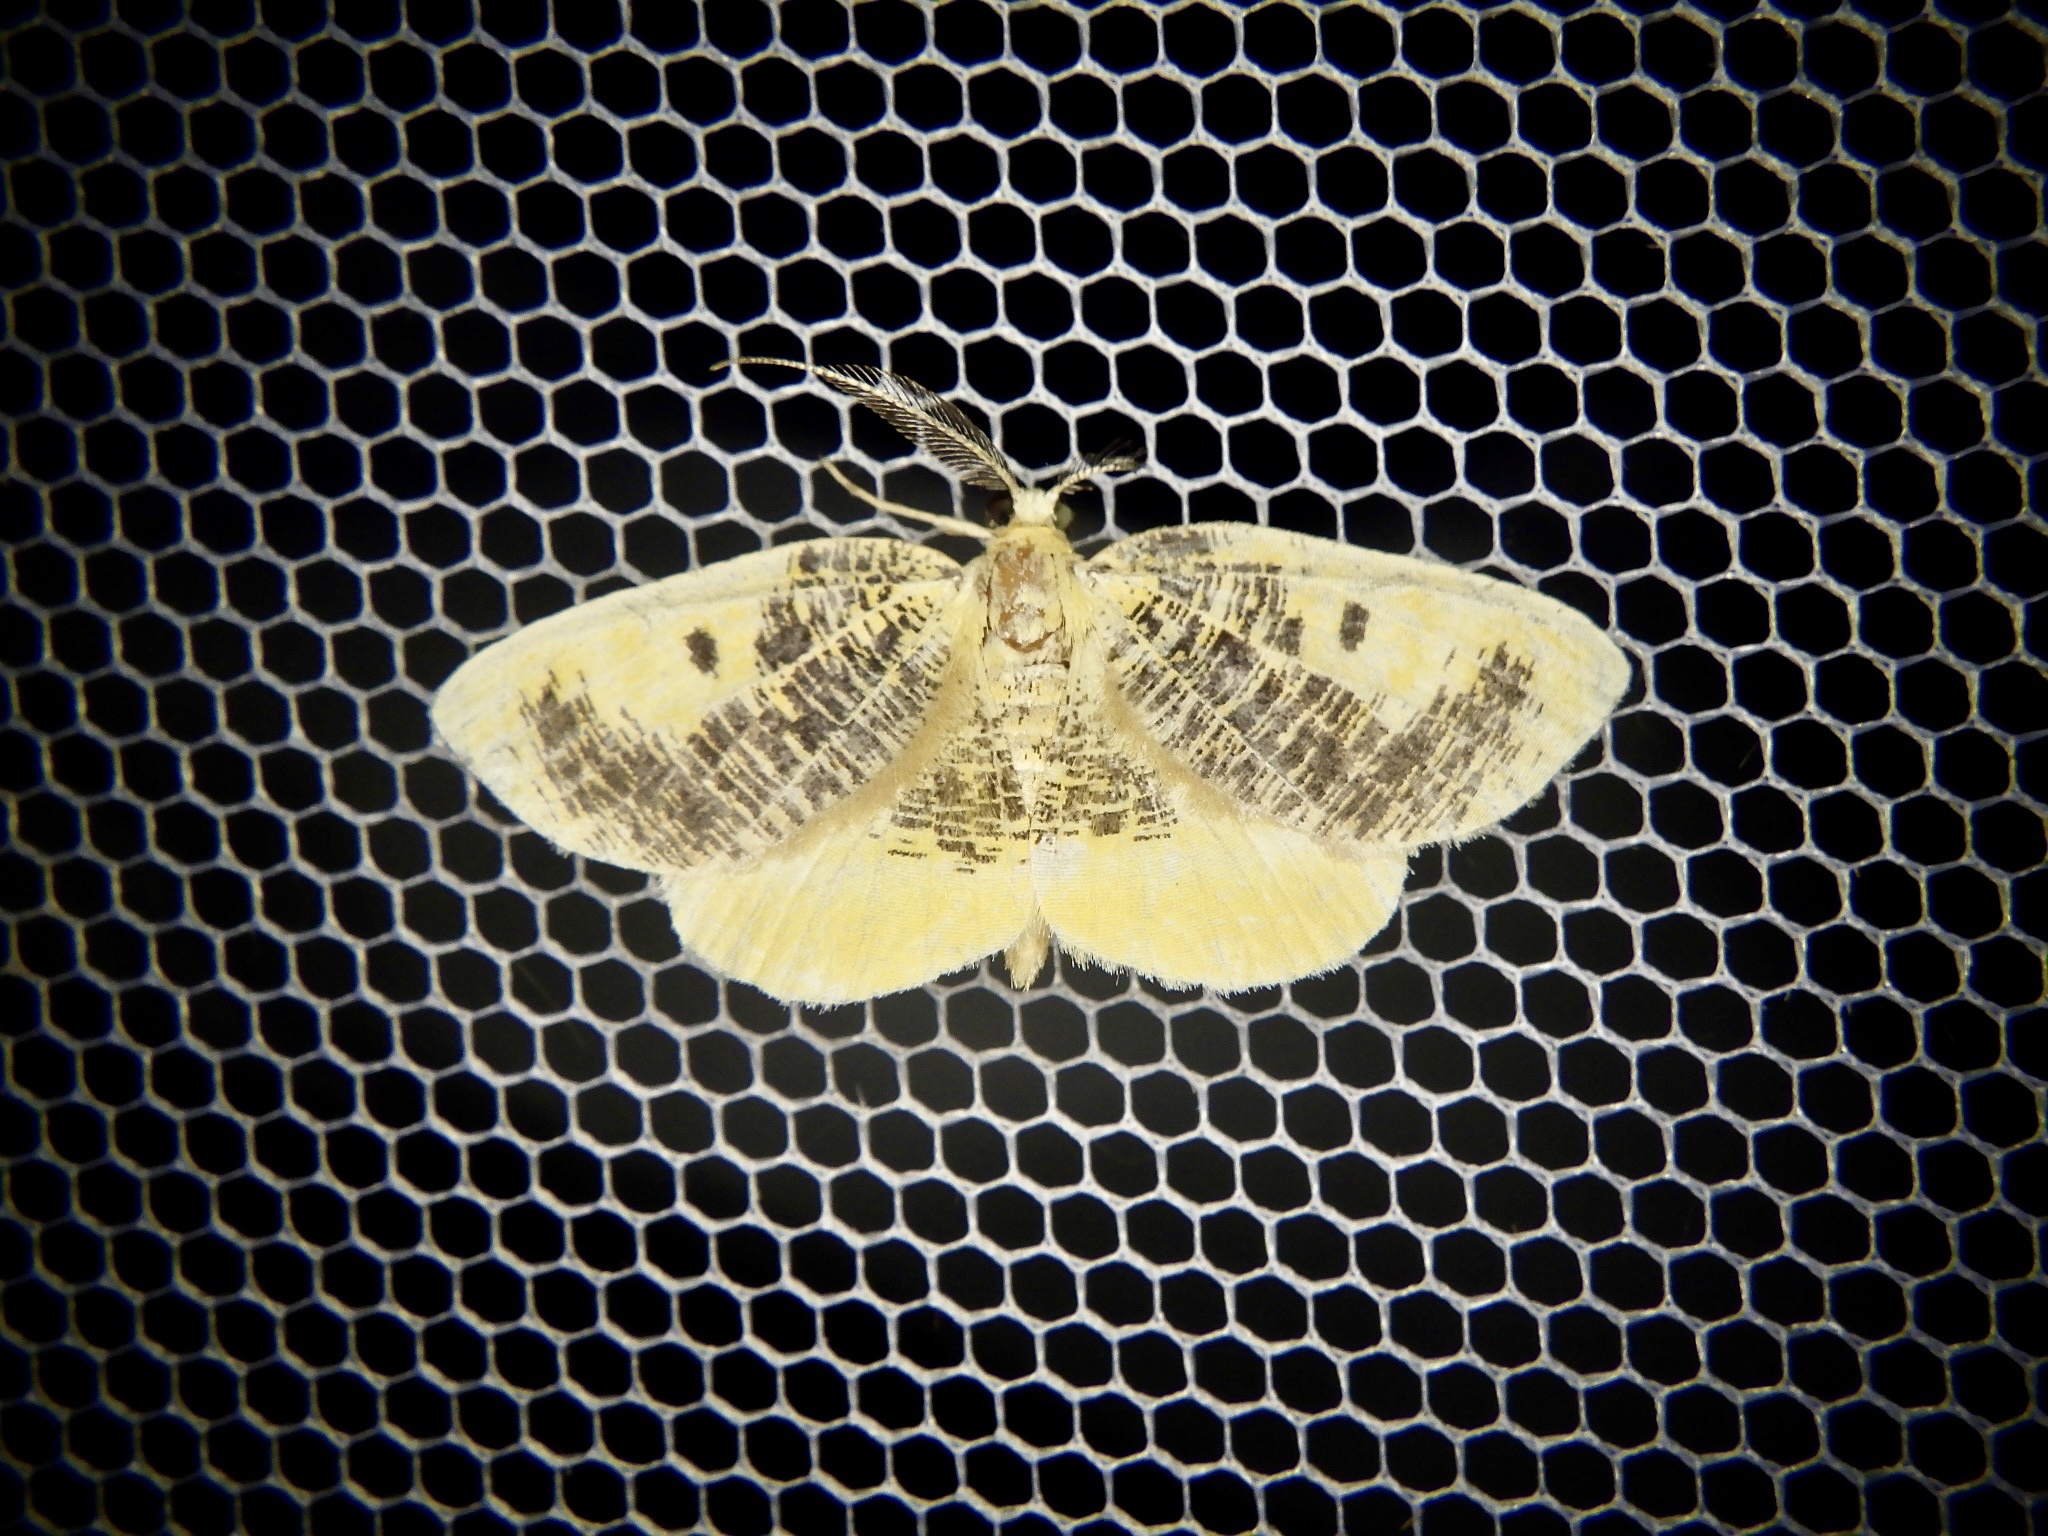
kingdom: Animalia
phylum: Arthropoda
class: Insecta
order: Lepidoptera
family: Geometridae
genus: Euchristophia
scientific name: Euchristophia cumulata
